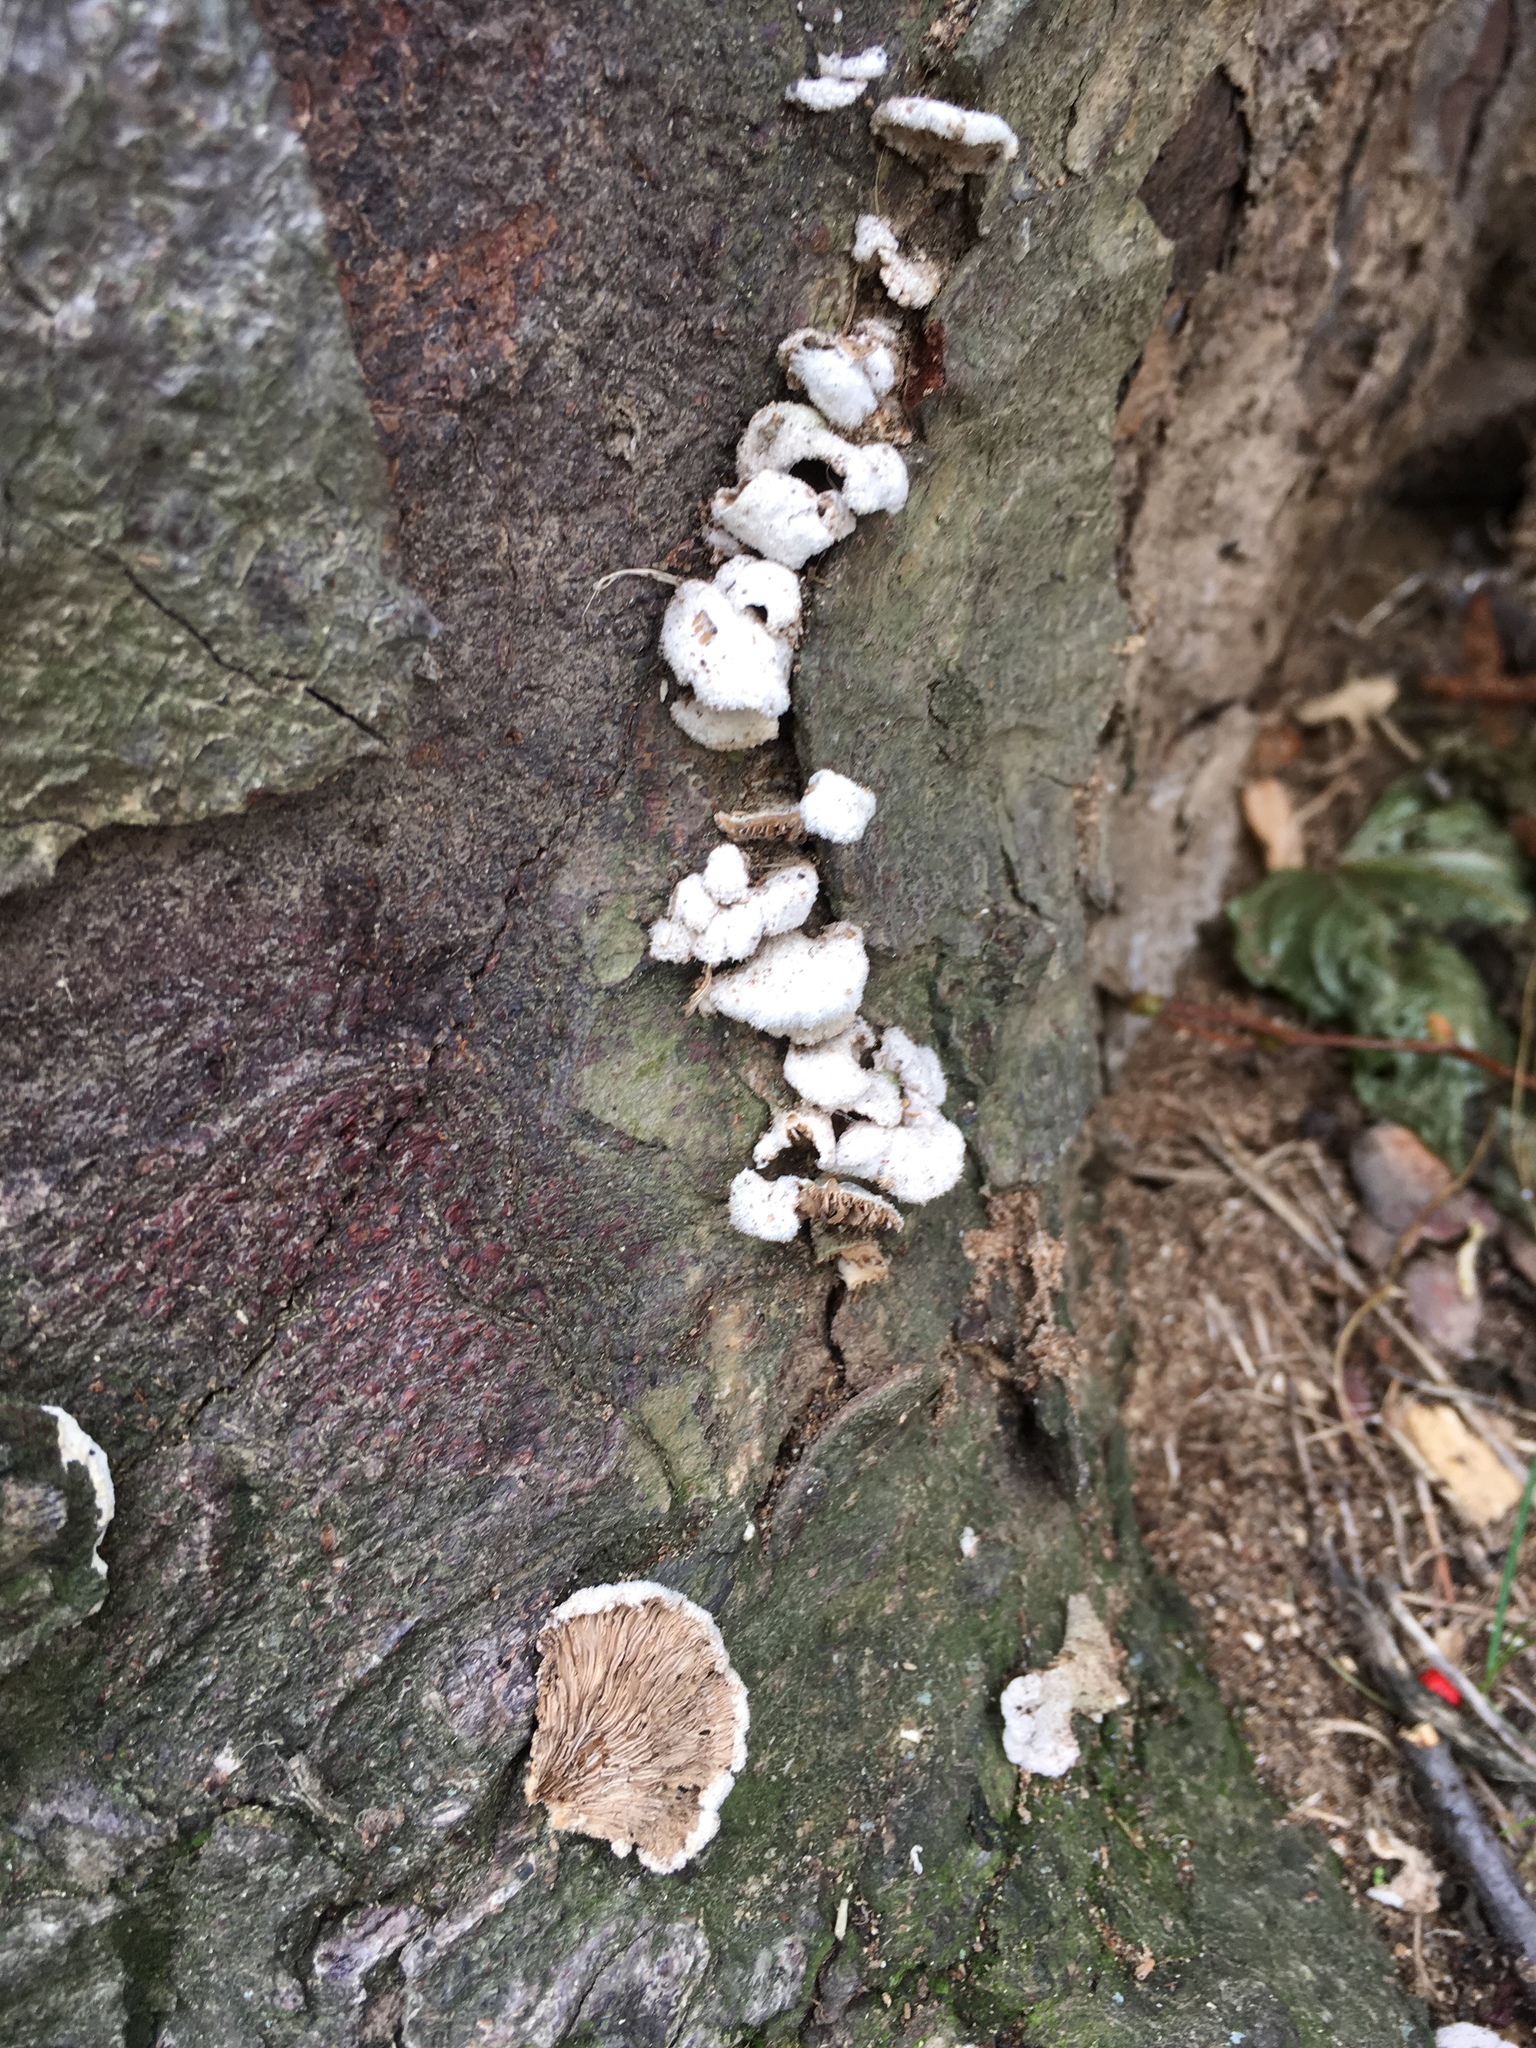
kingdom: Fungi
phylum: Basidiomycota
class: Agaricomycetes
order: Agaricales
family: Schizophyllaceae
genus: Schizophyllum
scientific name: Schizophyllum commune
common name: Common porecrust
